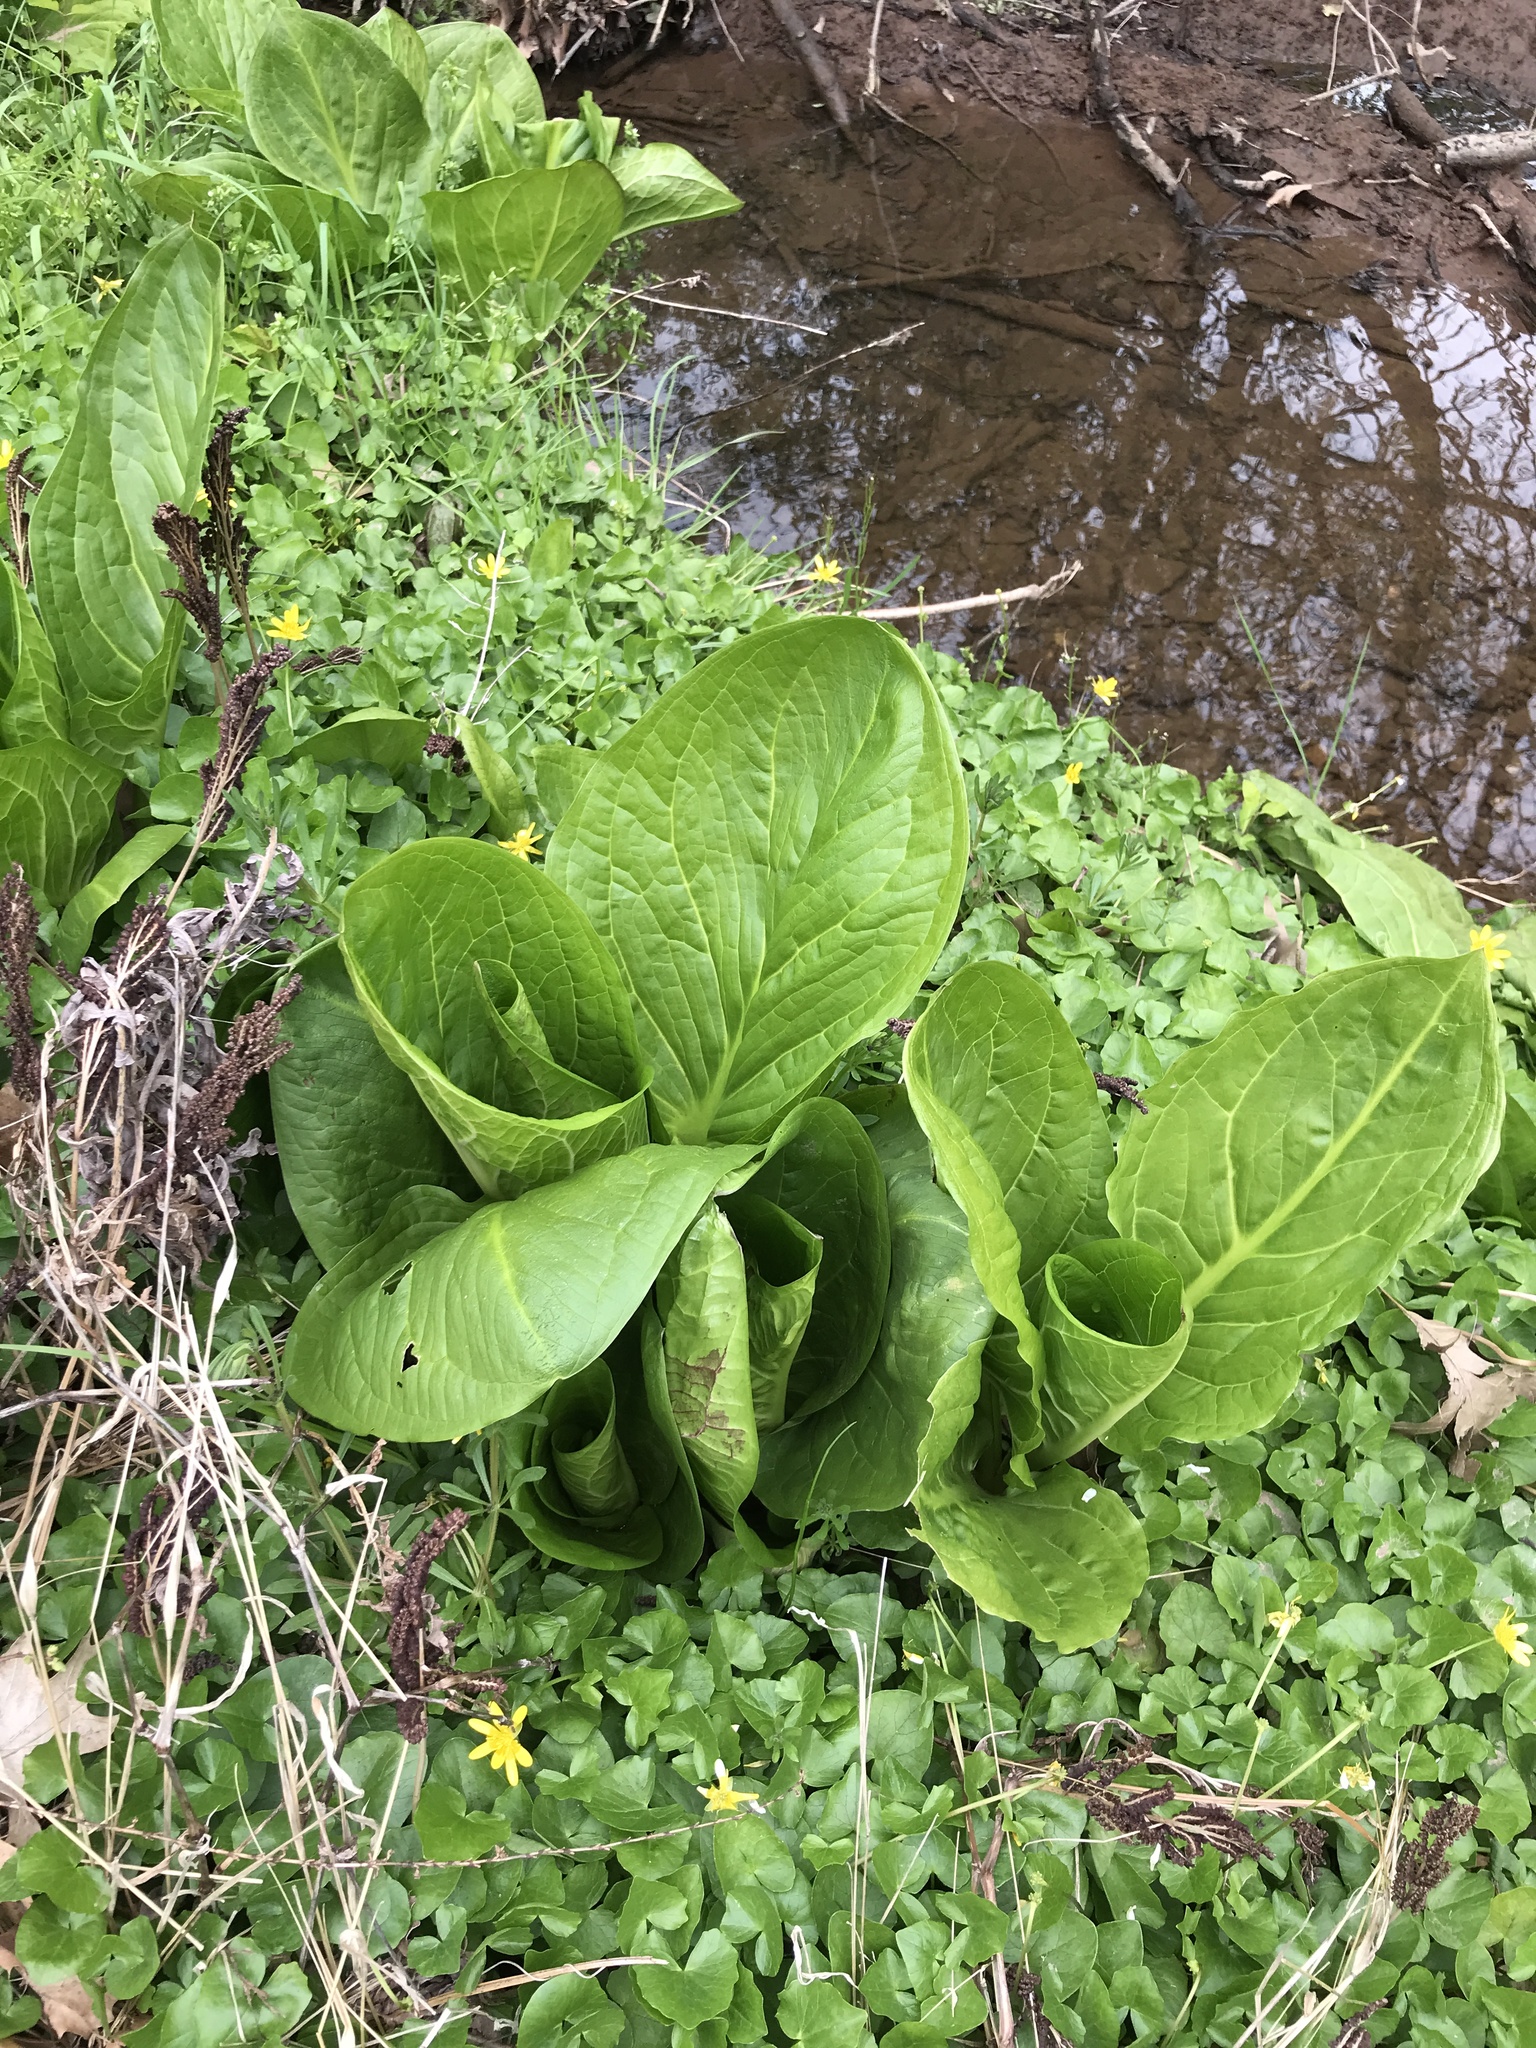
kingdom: Plantae
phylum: Tracheophyta
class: Liliopsida
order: Alismatales
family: Araceae
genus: Symplocarpus
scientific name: Symplocarpus foetidus
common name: Eastern skunk cabbage
